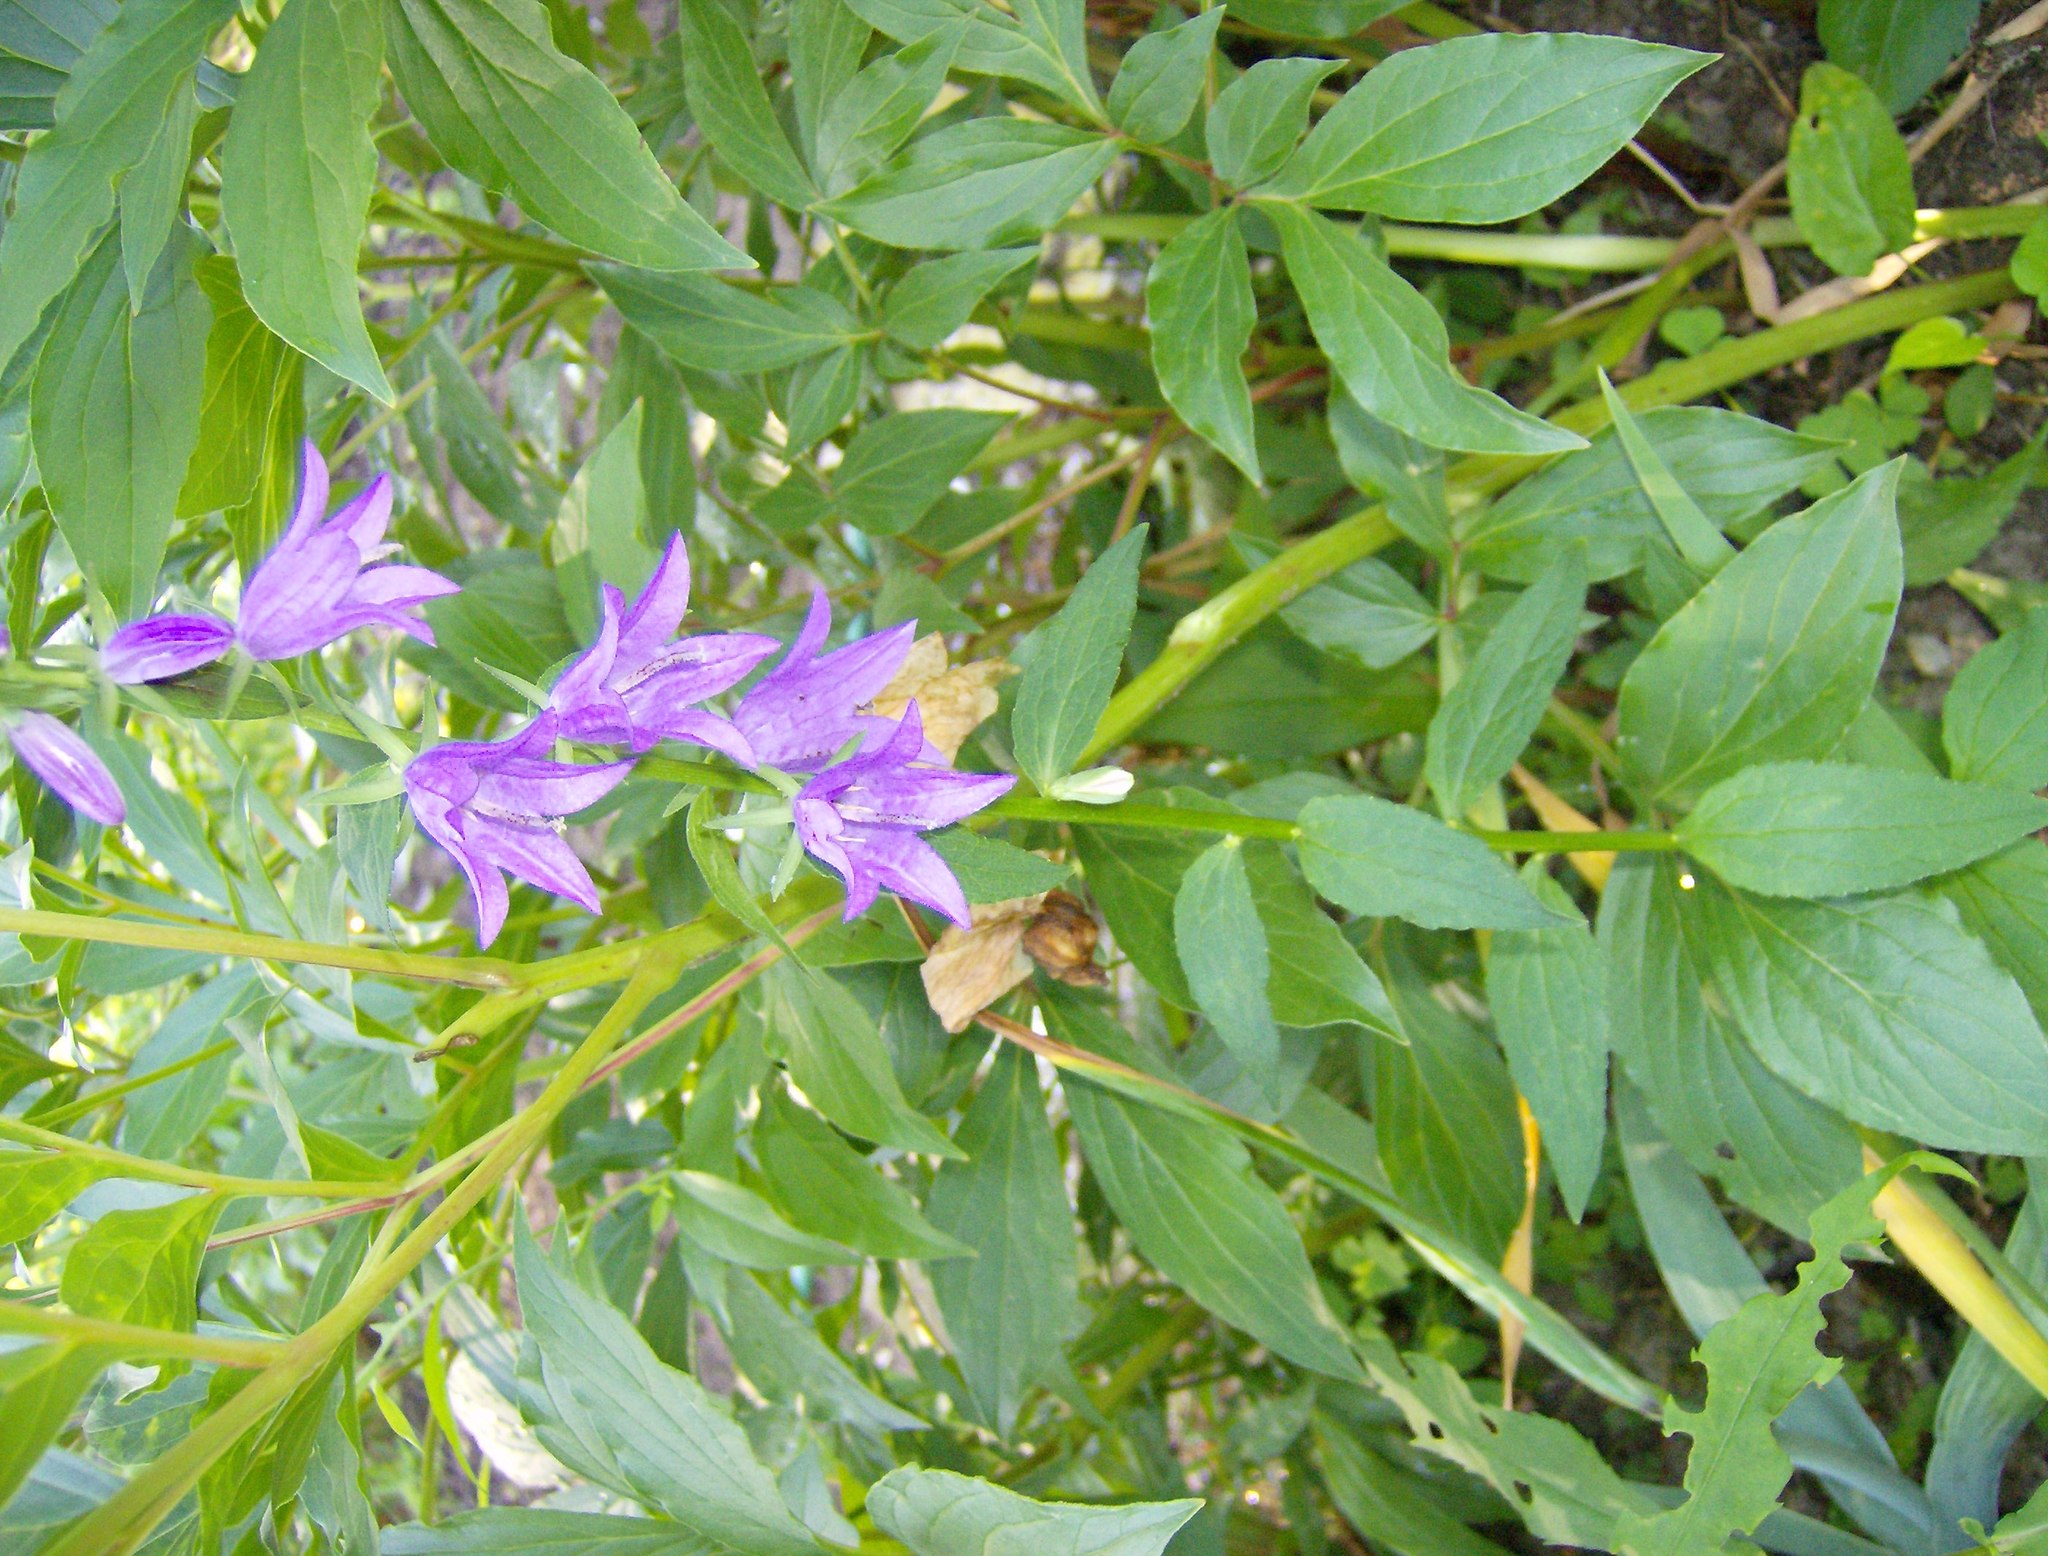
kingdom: Plantae
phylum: Tracheophyta
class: Magnoliopsida
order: Asterales
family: Campanulaceae
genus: Campanula
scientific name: Campanula rapunculoides
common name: Creeping bellflower
